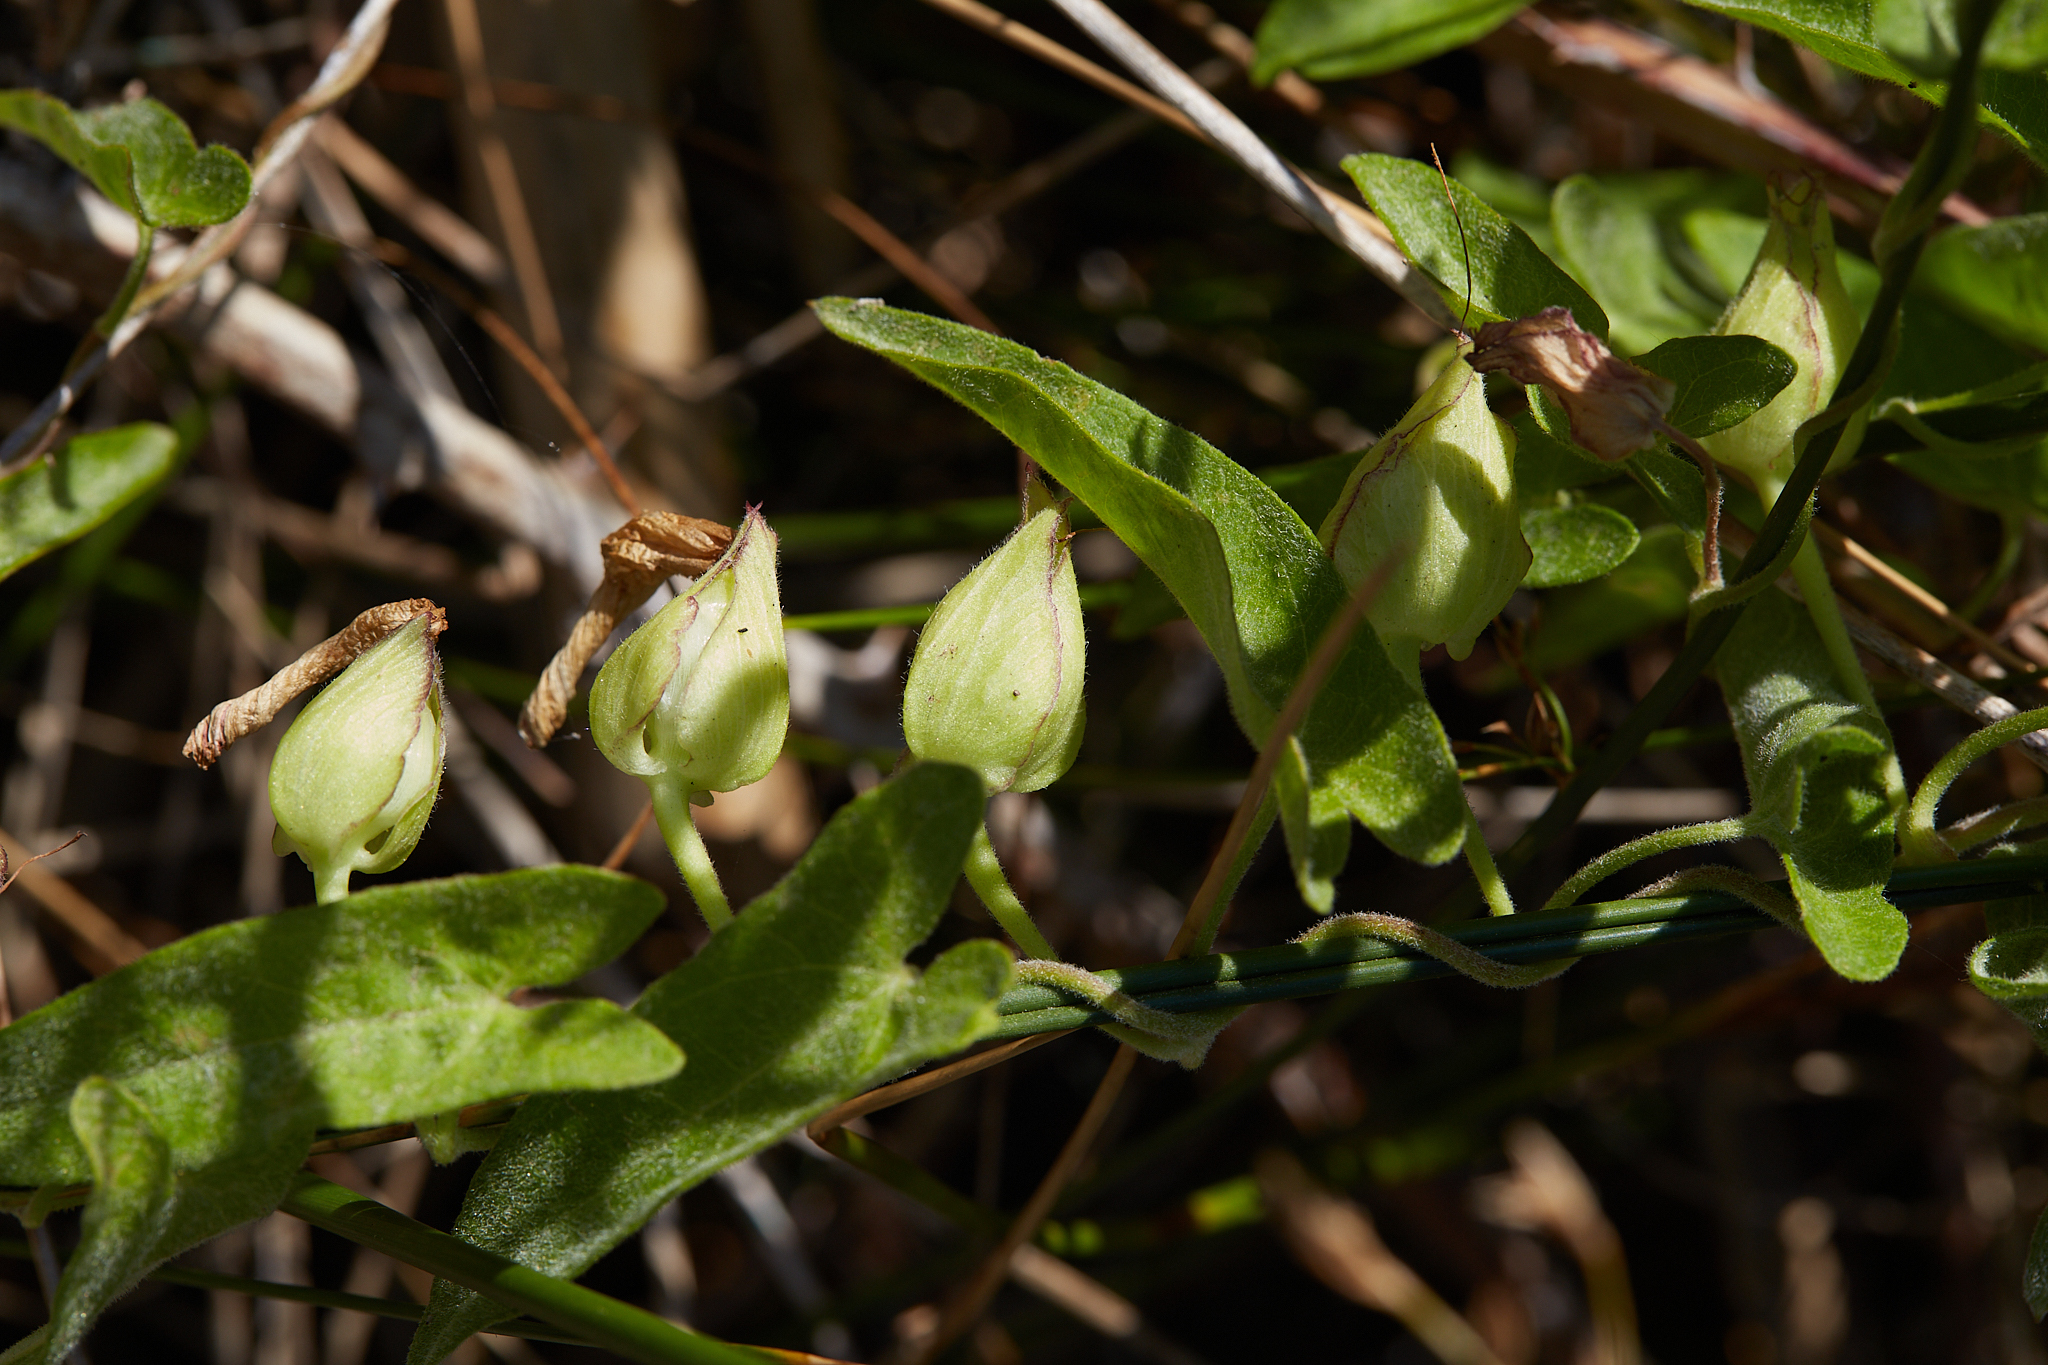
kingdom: Plantae
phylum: Tracheophyta
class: Magnoliopsida
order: Solanales
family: Convolvulaceae
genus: Calystegia
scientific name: Calystegia sepium
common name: Hedge bindweed
